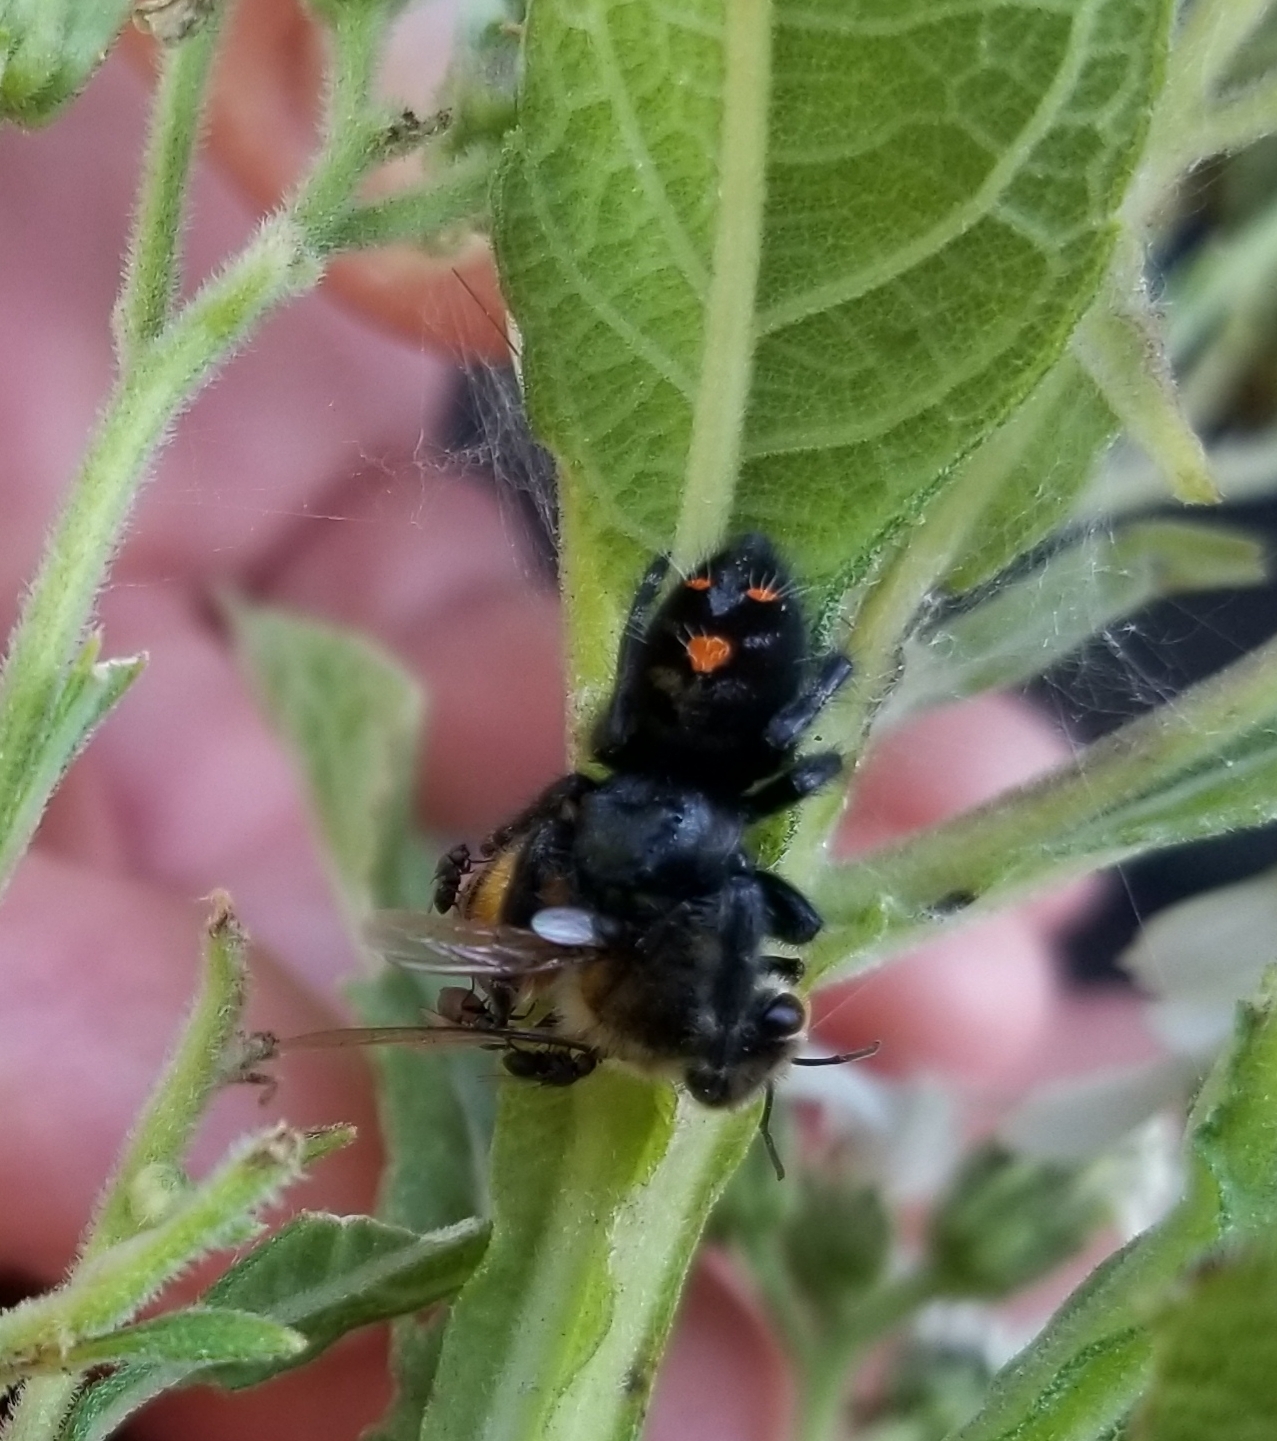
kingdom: Animalia
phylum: Arthropoda
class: Arachnida
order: Araneae
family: Salticidae
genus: Phidippus
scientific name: Phidippus audax
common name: Bold jumper
